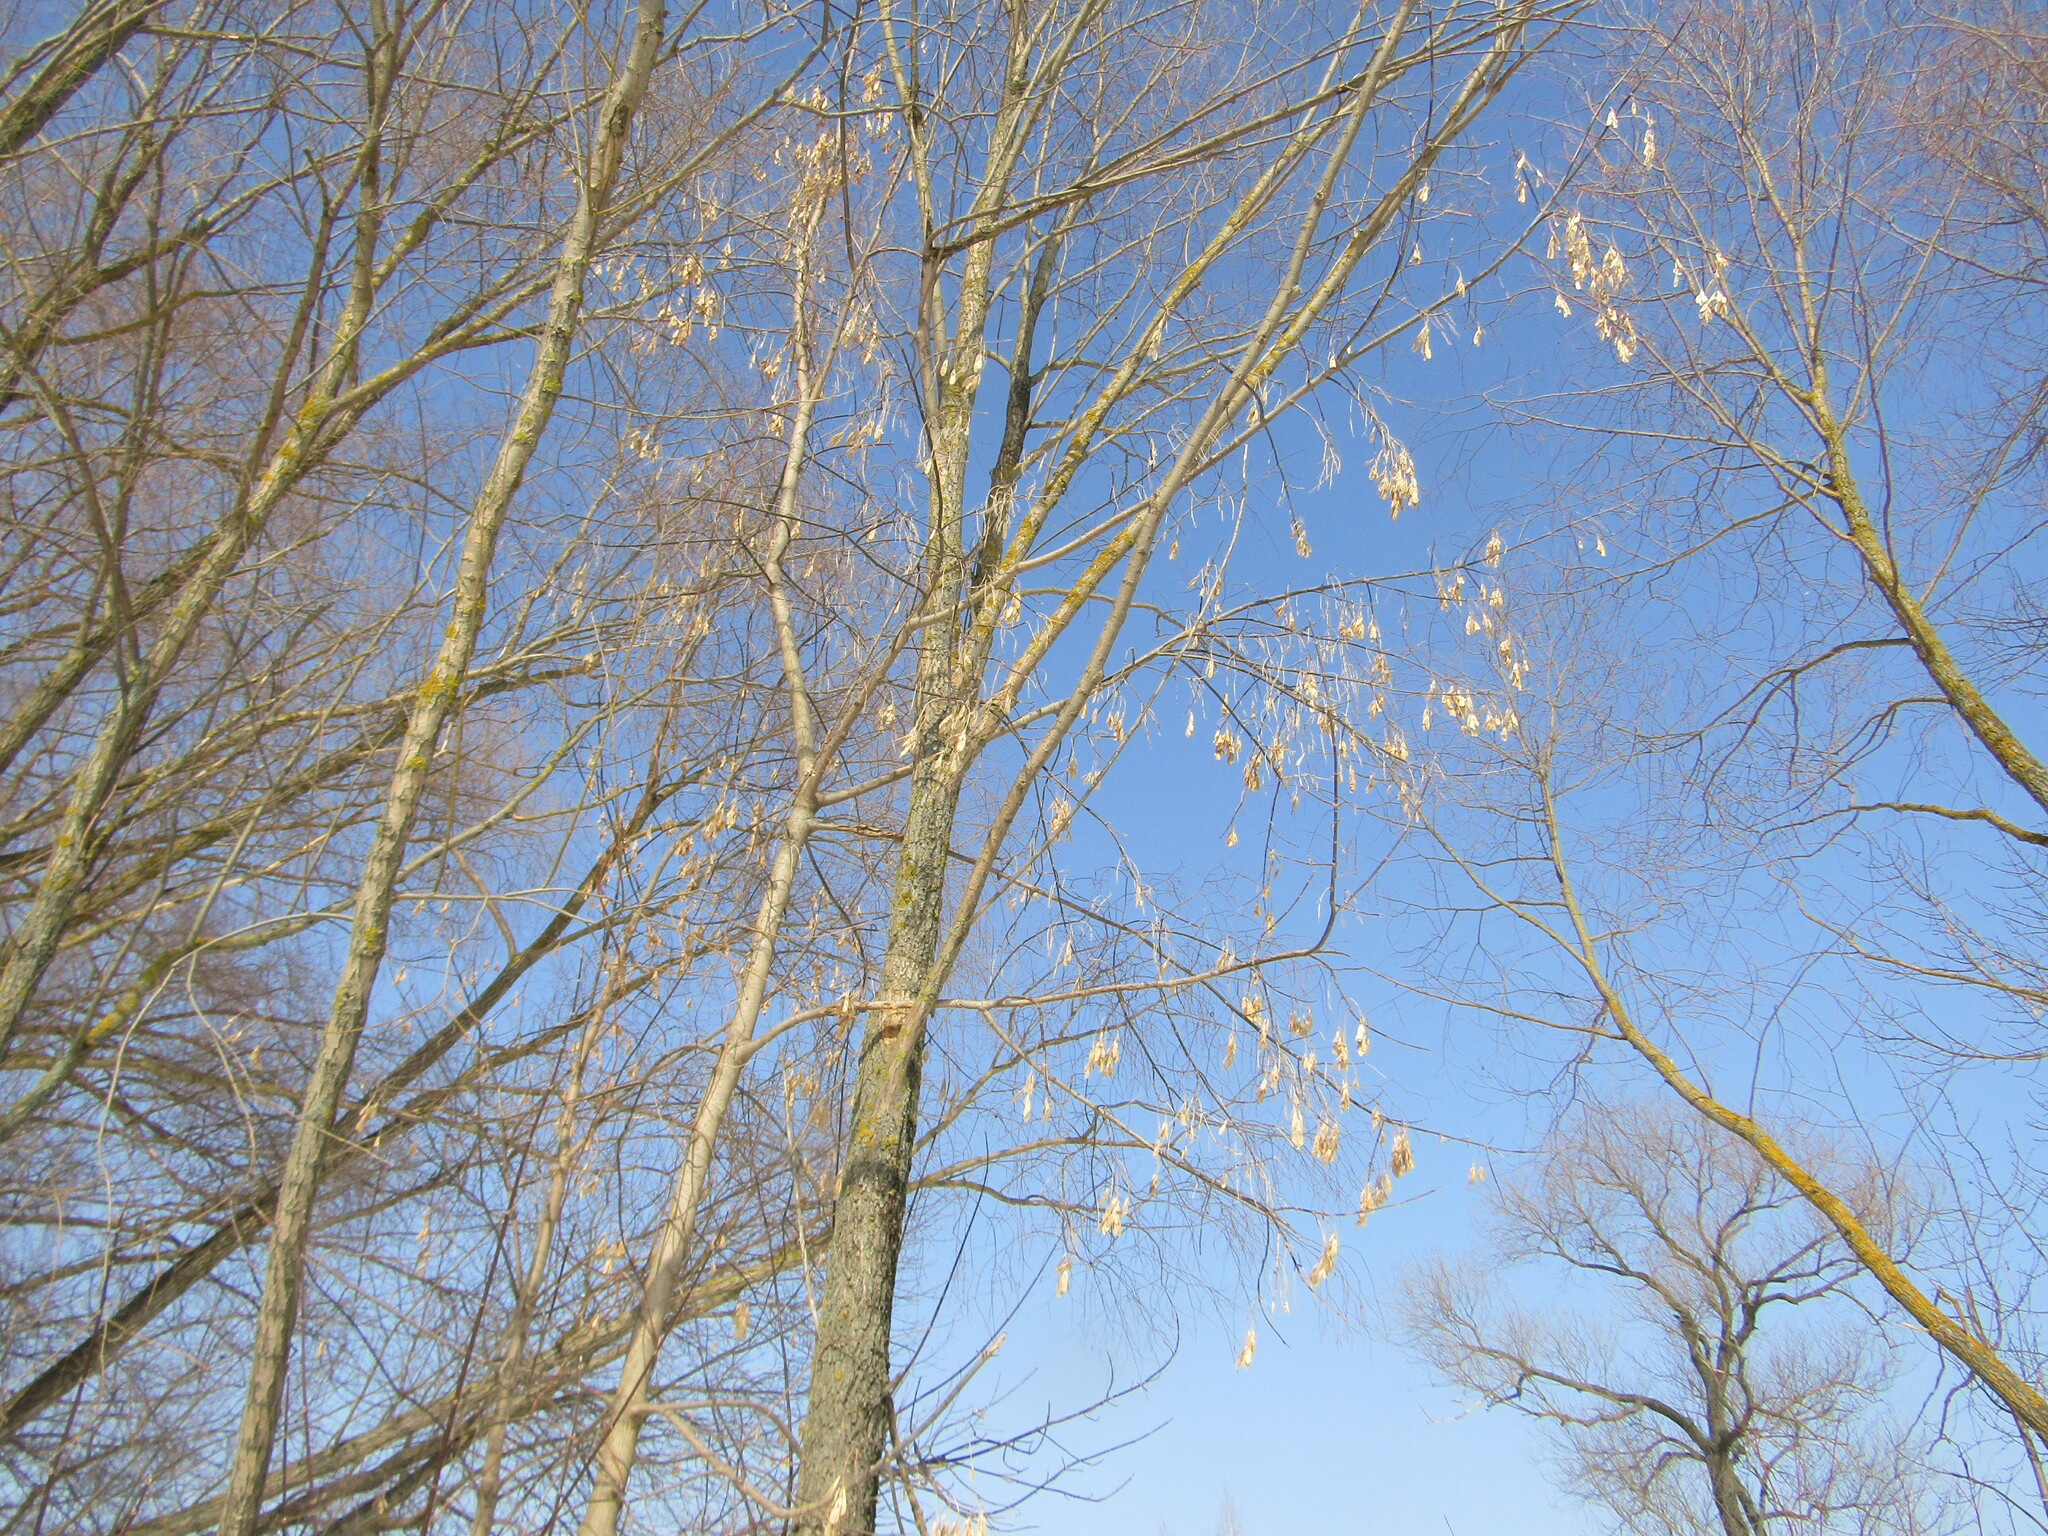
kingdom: Plantae
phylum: Tracheophyta
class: Magnoliopsida
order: Sapindales
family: Sapindaceae
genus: Acer
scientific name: Acer negundo
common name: Ashleaf maple
